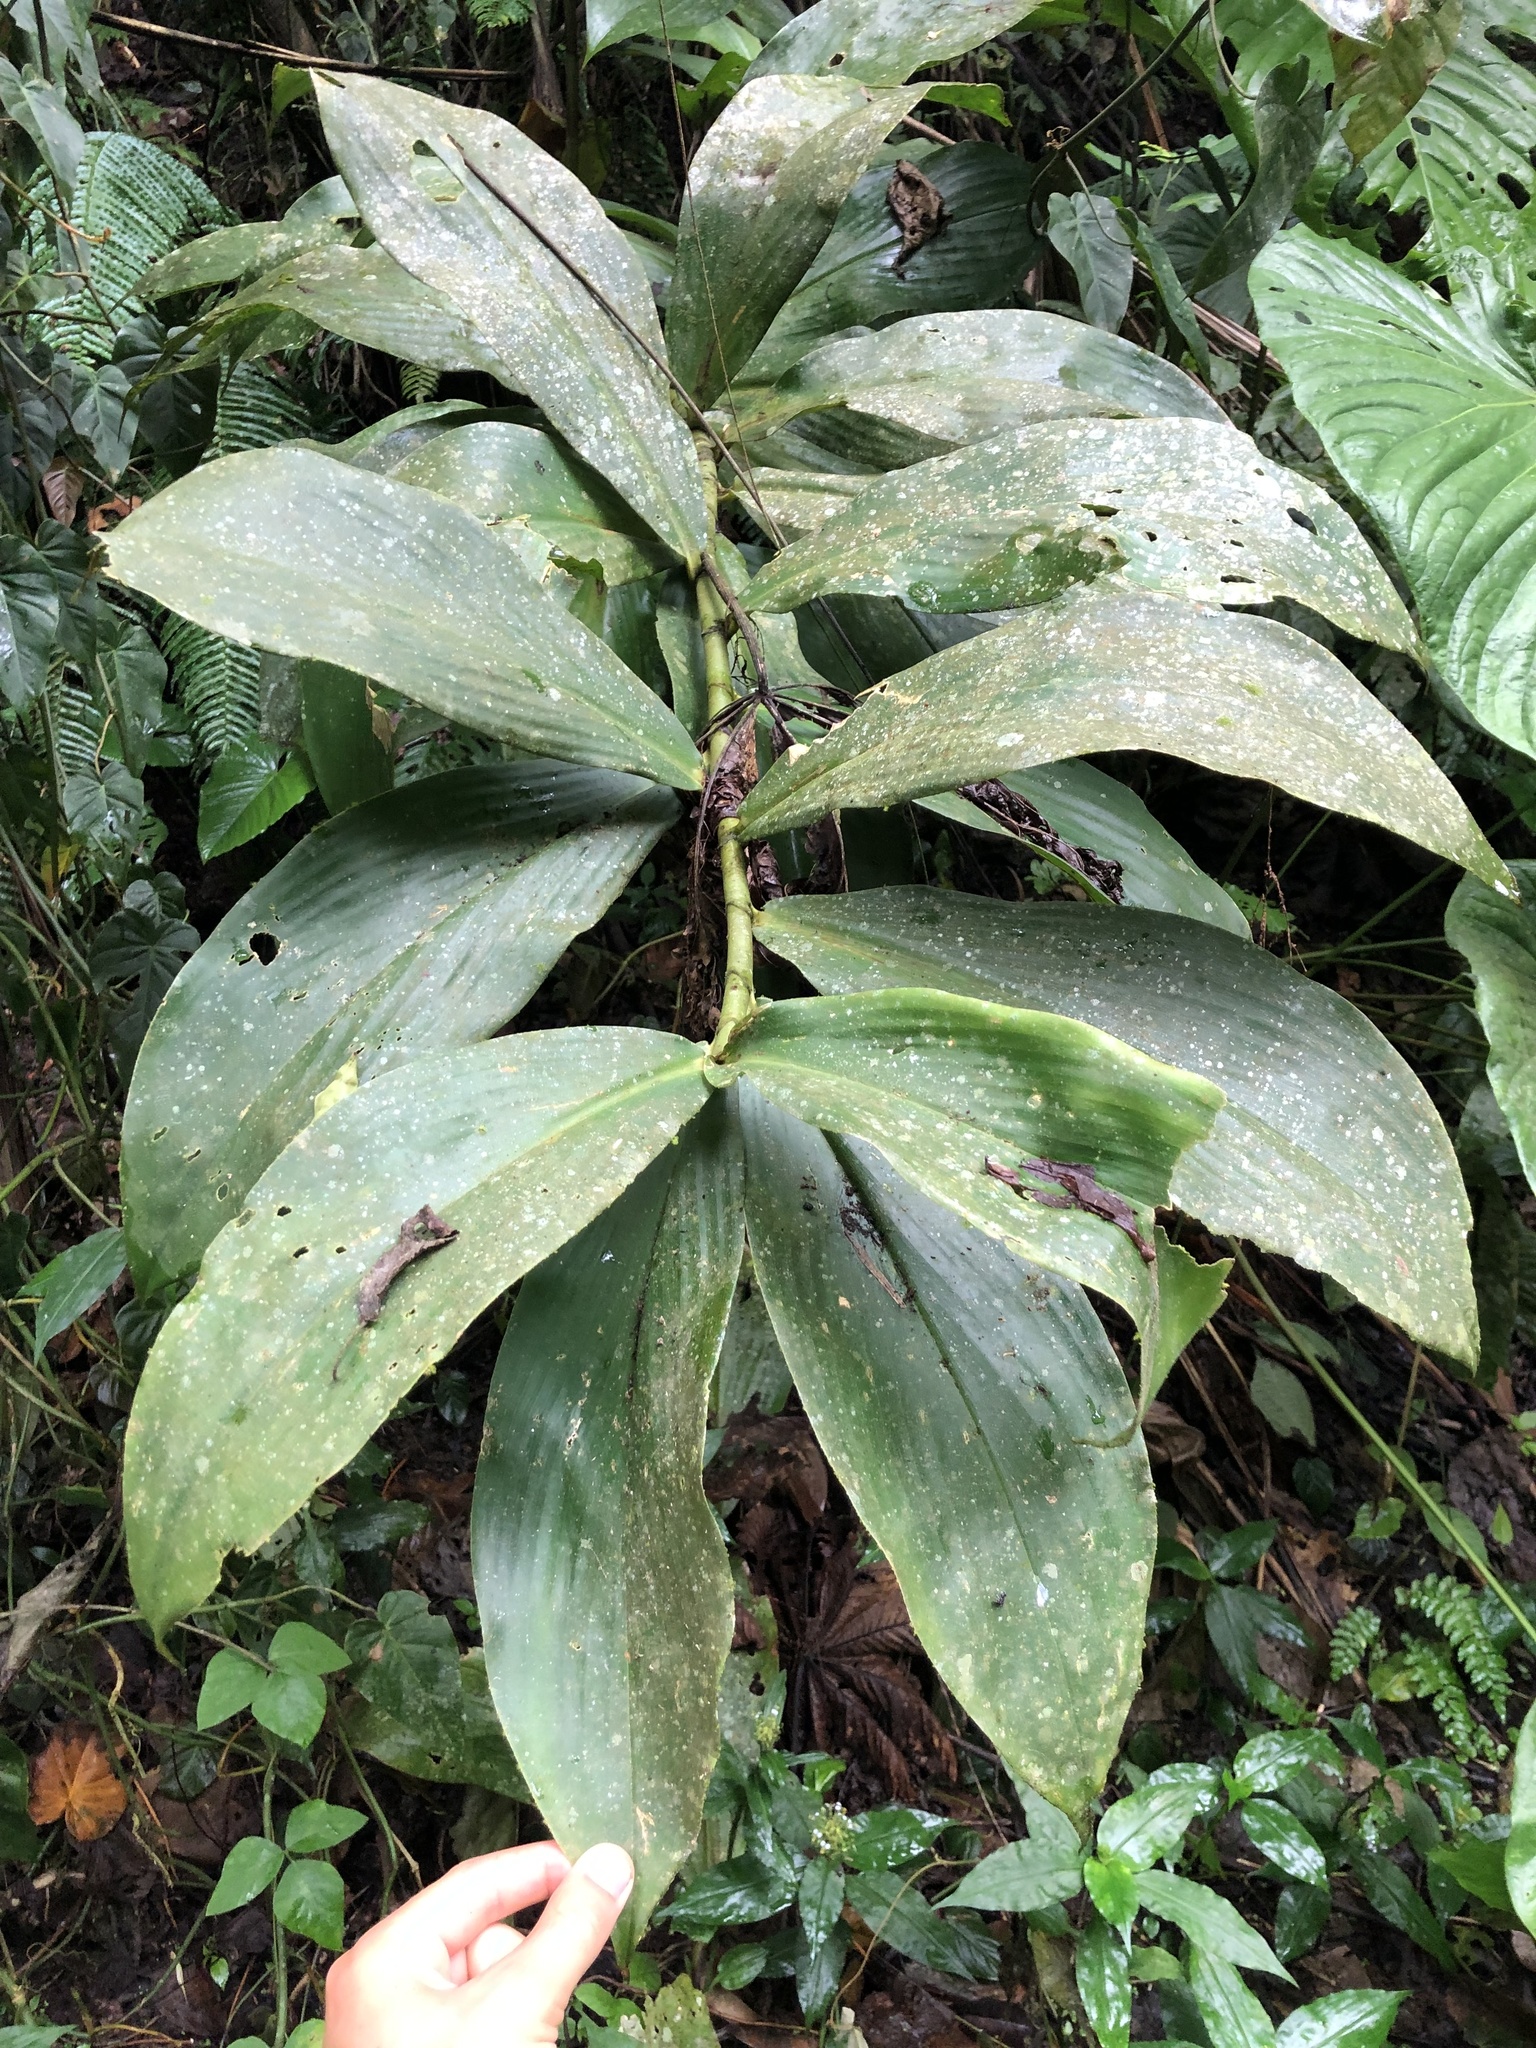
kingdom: Plantae
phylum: Tracheophyta
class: Liliopsida
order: Zingiberales
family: Costaceae
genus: Costus
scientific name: Costus geothyrsus
